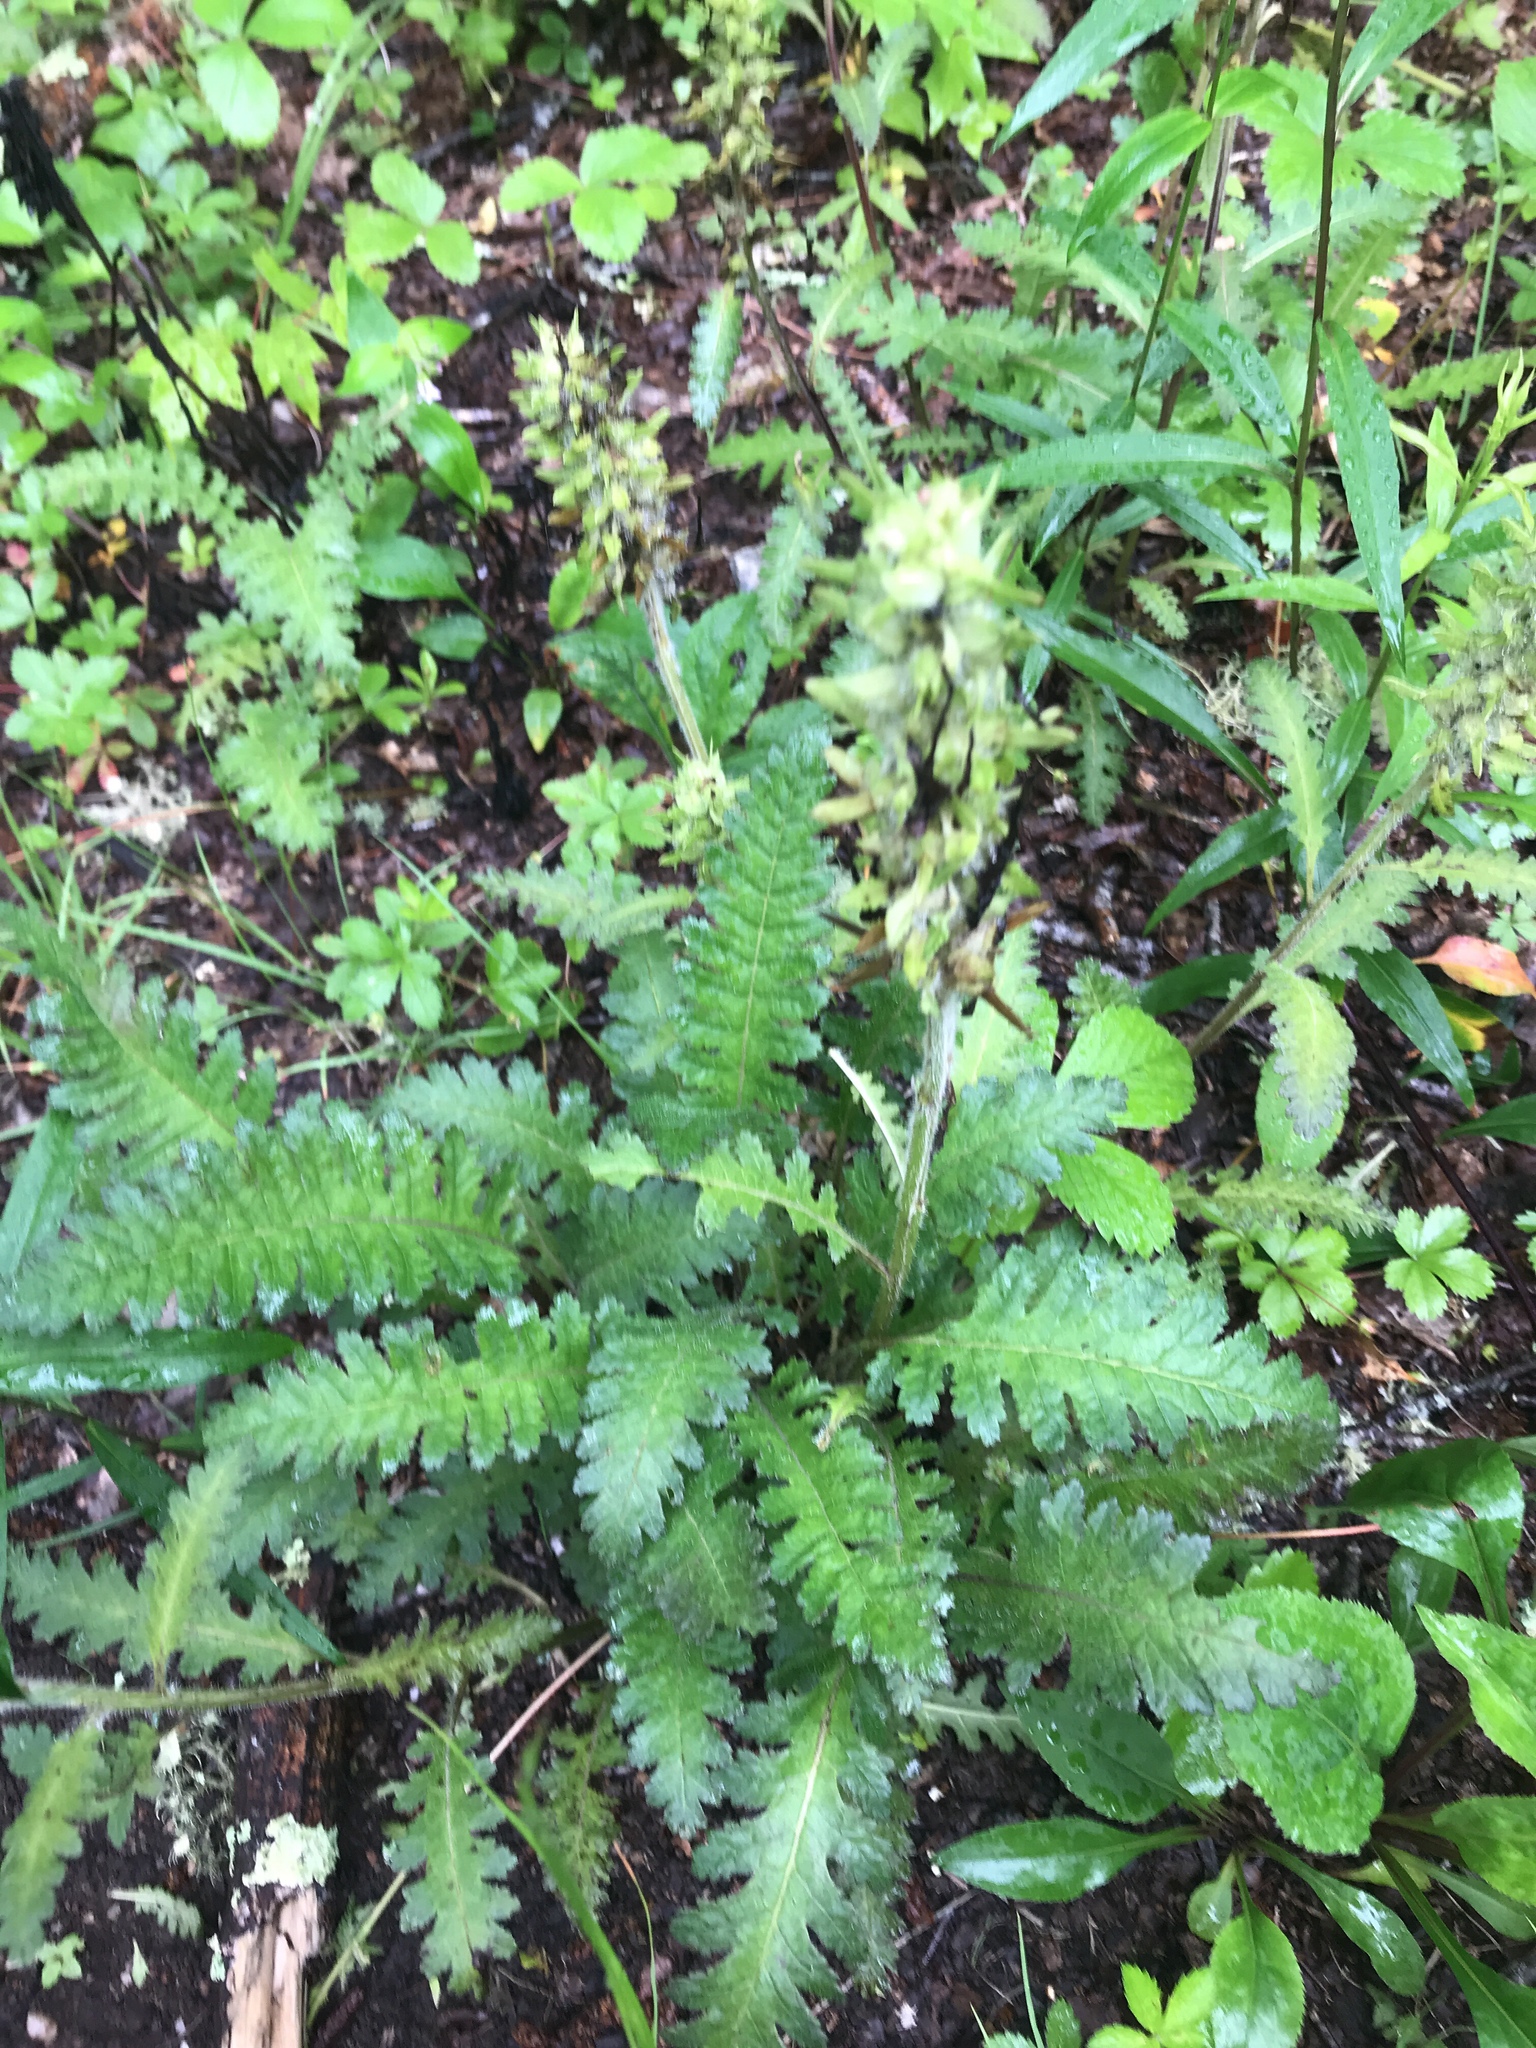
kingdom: Plantae
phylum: Tracheophyta
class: Magnoliopsida
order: Lamiales
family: Orobanchaceae
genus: Pedicularis
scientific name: Pedicularis canadensis
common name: Early lousewort
